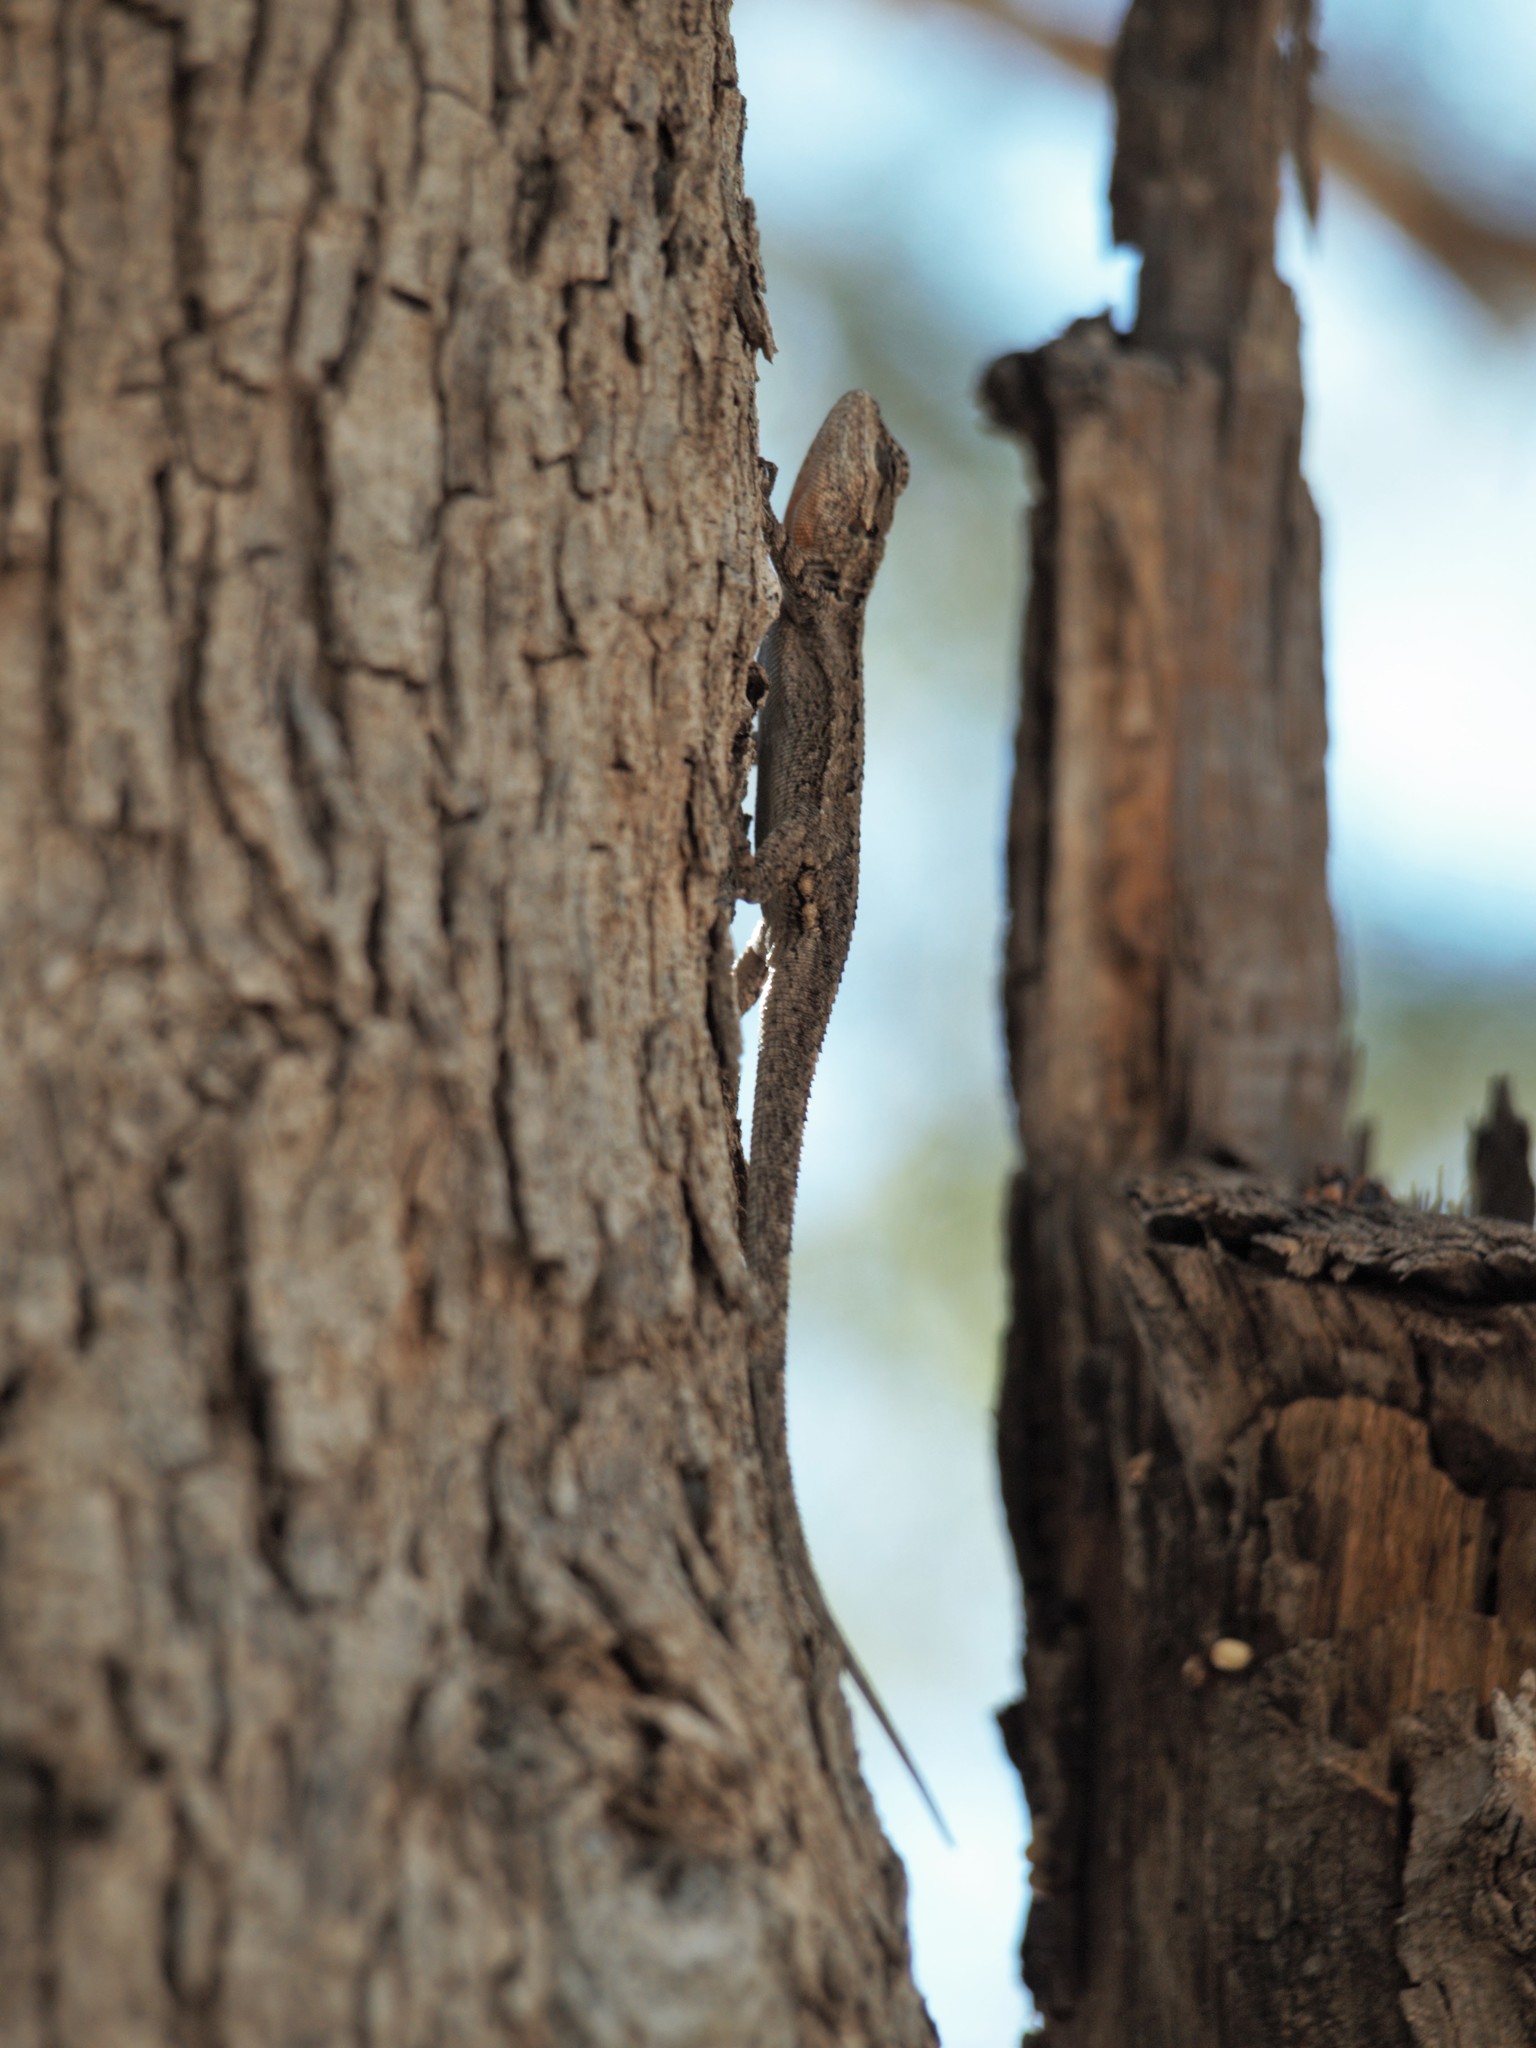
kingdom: Animalia
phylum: Chordata
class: Squamata
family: Phrynosomatidae
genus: Urosaurus
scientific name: Urosaurus ornatus
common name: Ornate tree lizard
